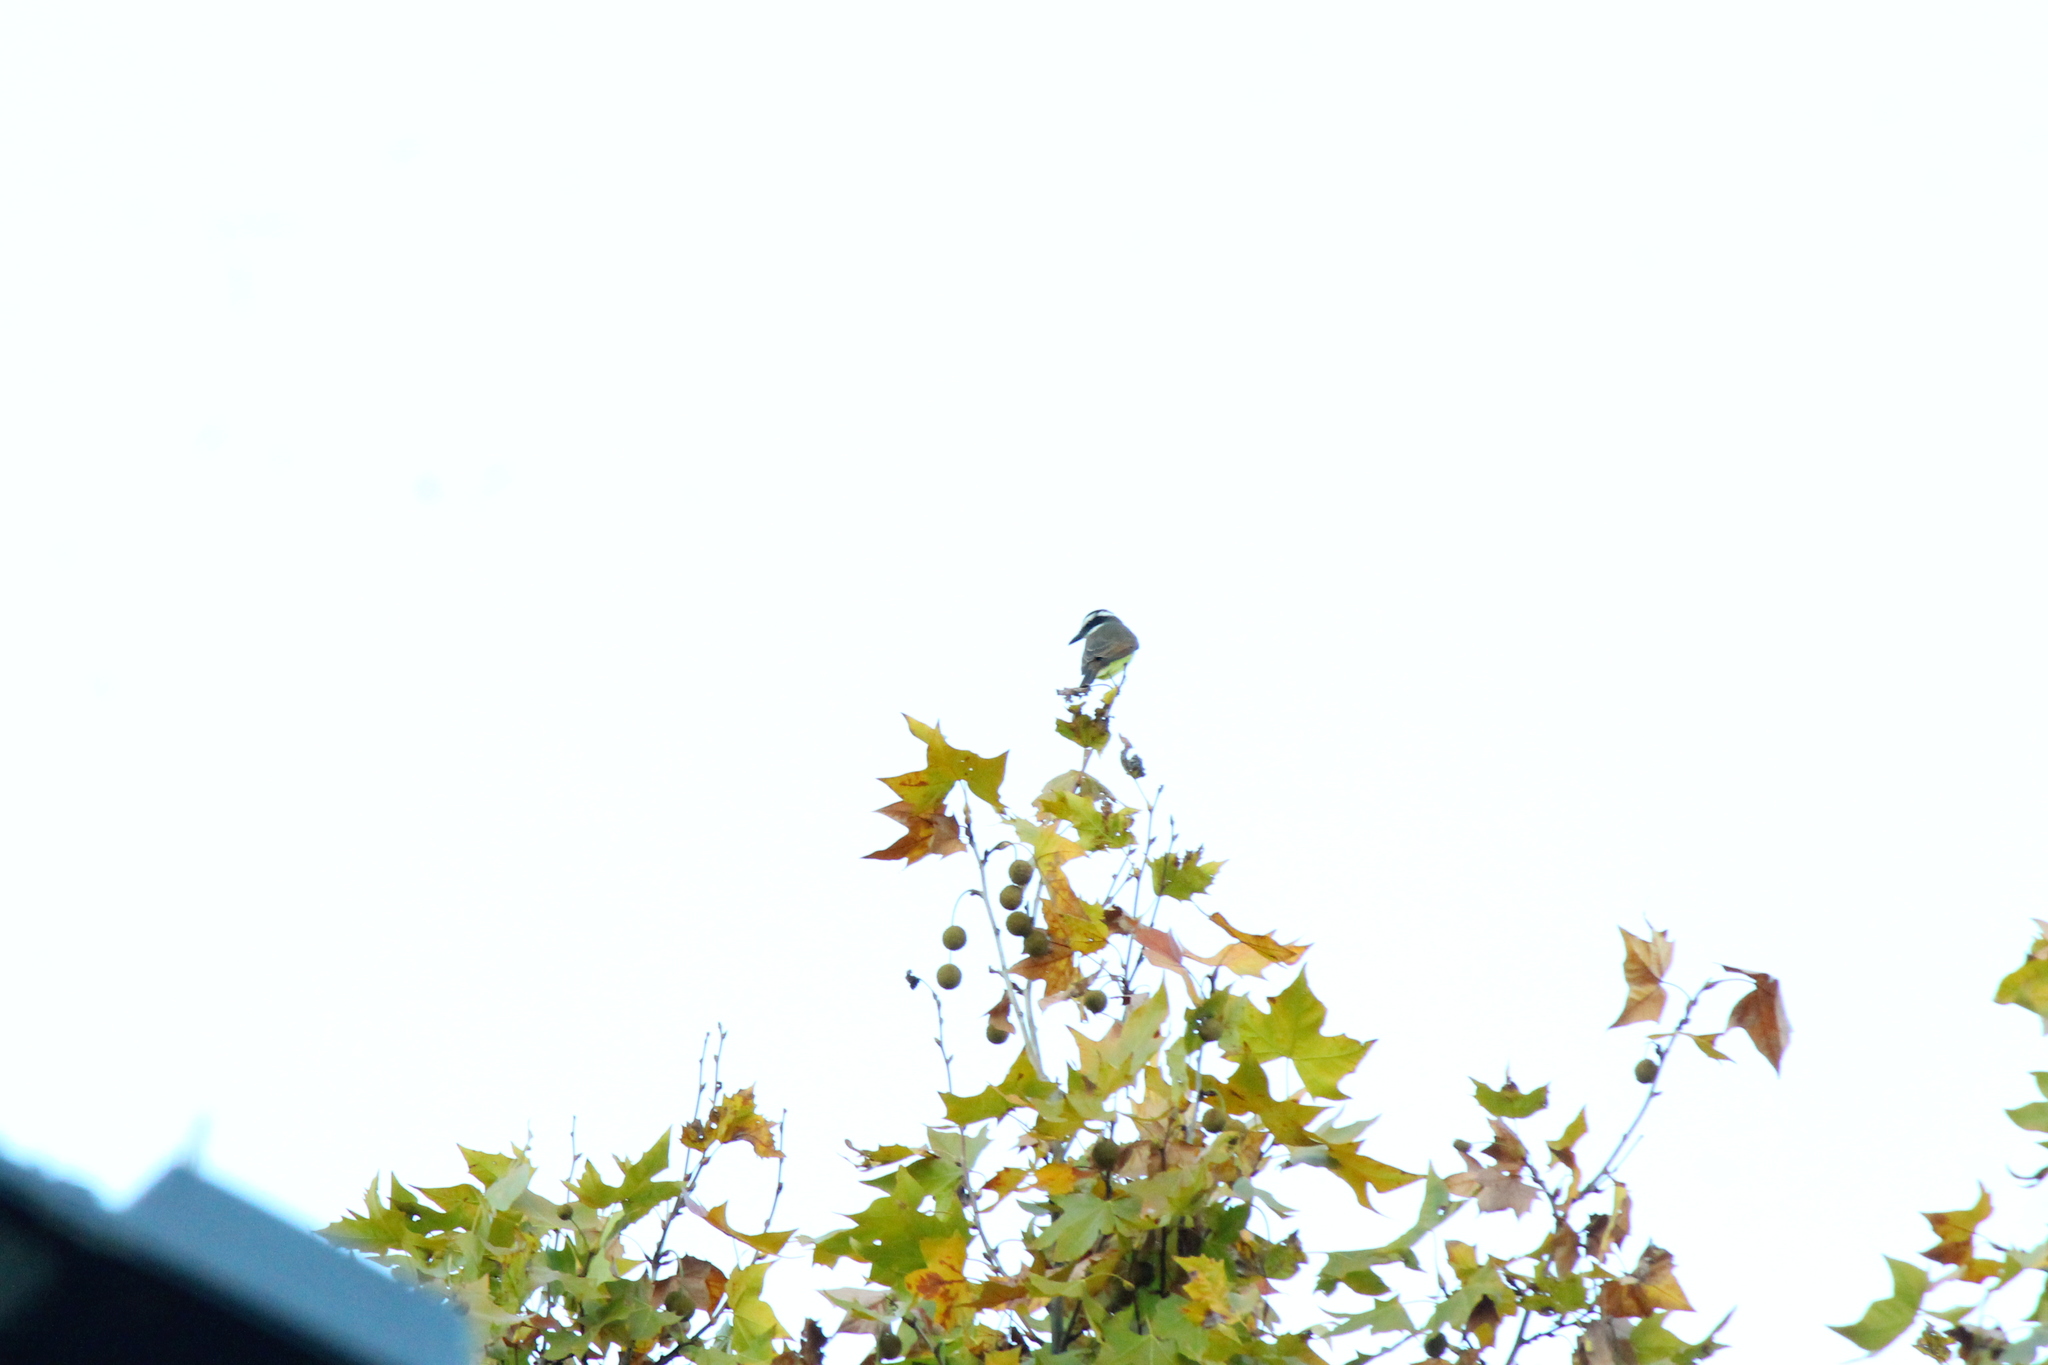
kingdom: Animalia
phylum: Chordata
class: Aves
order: Passeriformes
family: Tyrannidae
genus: Pitangus
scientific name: Pitangus sulphuratus
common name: Great kiskadee
